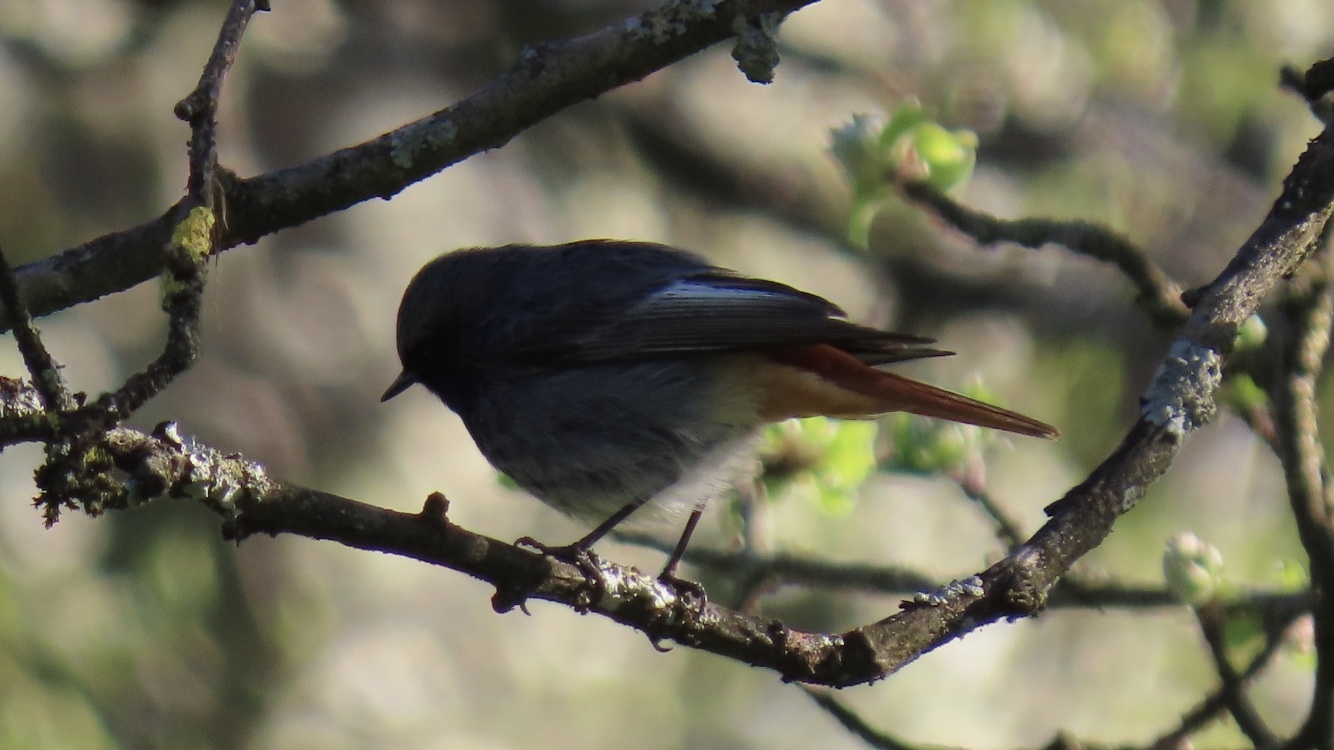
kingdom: Animalia
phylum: Chordata
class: Aves
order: Passeriformes
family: Muscicapidae
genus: Phoenicurus
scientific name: Phoenicurus ochruros
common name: Black redstart
